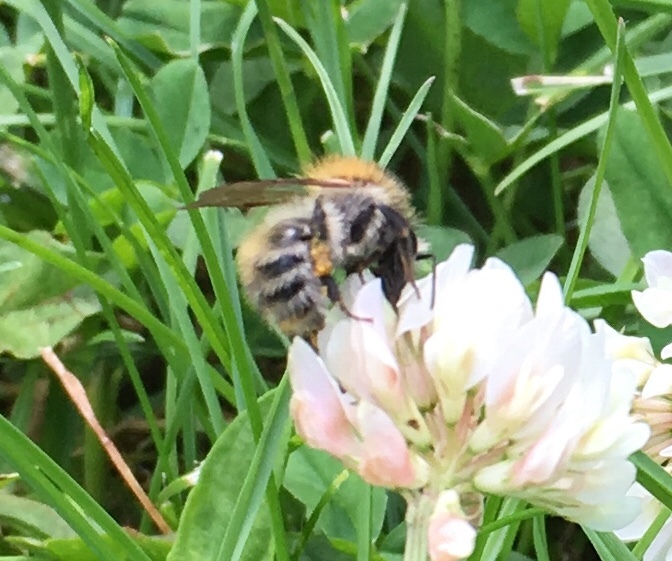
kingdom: Animalia
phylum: Arthropoda
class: Insecta
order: Hymenoptera
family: Apidae
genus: Bombus
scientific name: Bombus pascuorum
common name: Common carder bee
